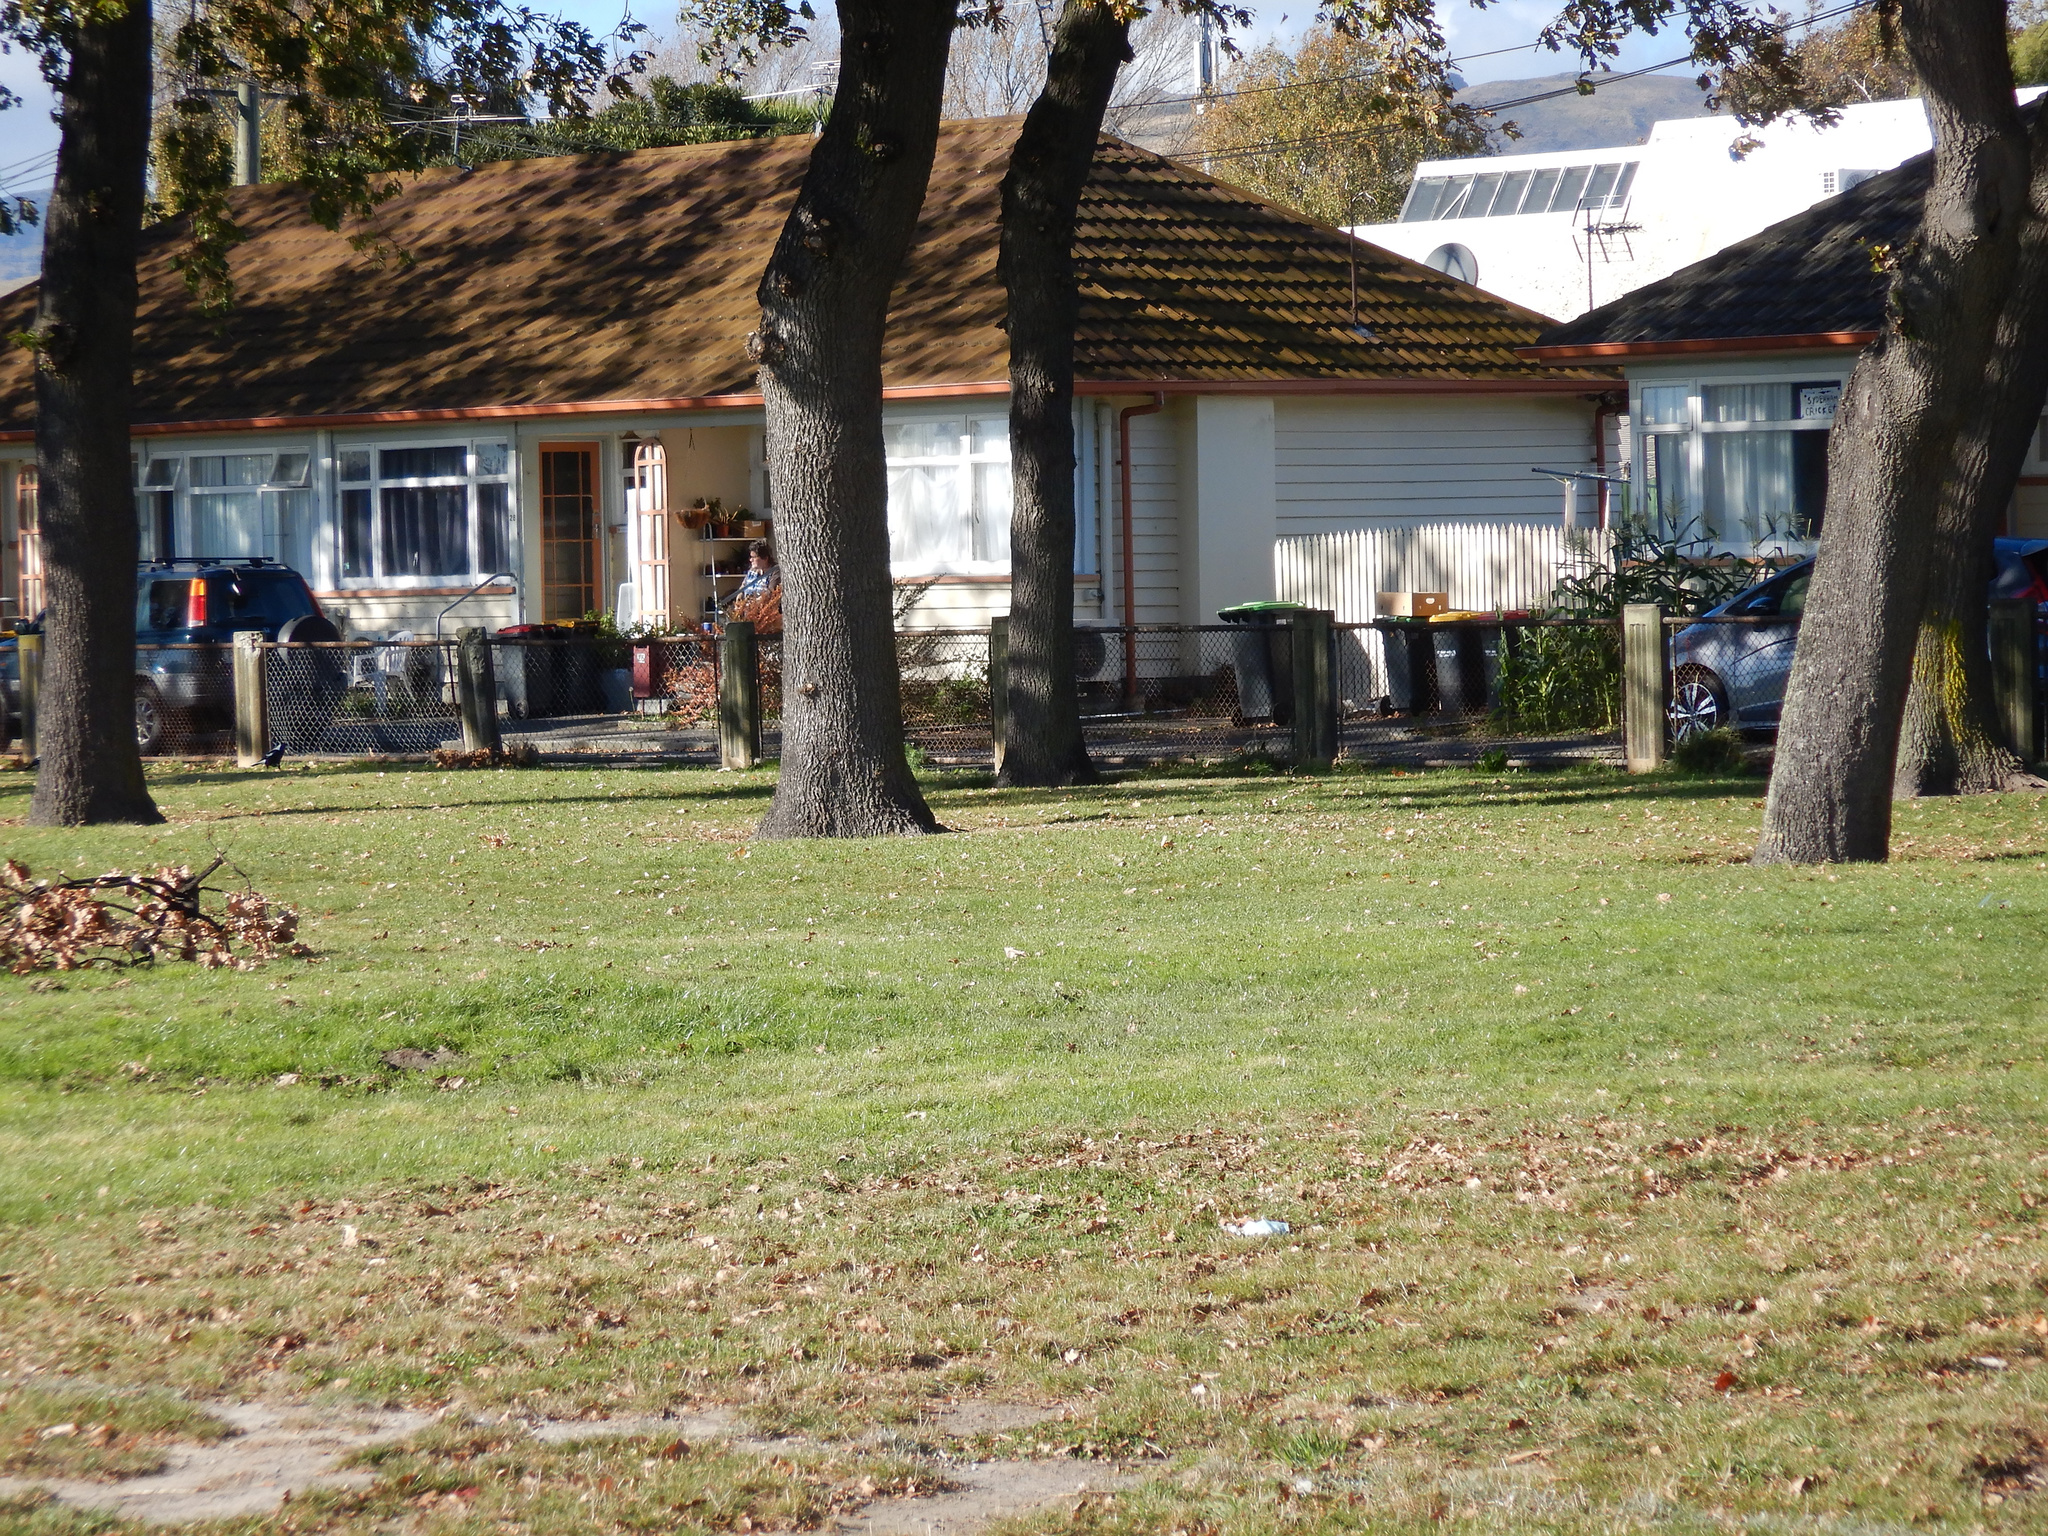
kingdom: Animalia
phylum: Chordata
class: Aves
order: Passeriformes
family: Cracticidae
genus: Gymnorhina
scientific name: Gymnorhina tibicen
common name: Australian magpie
